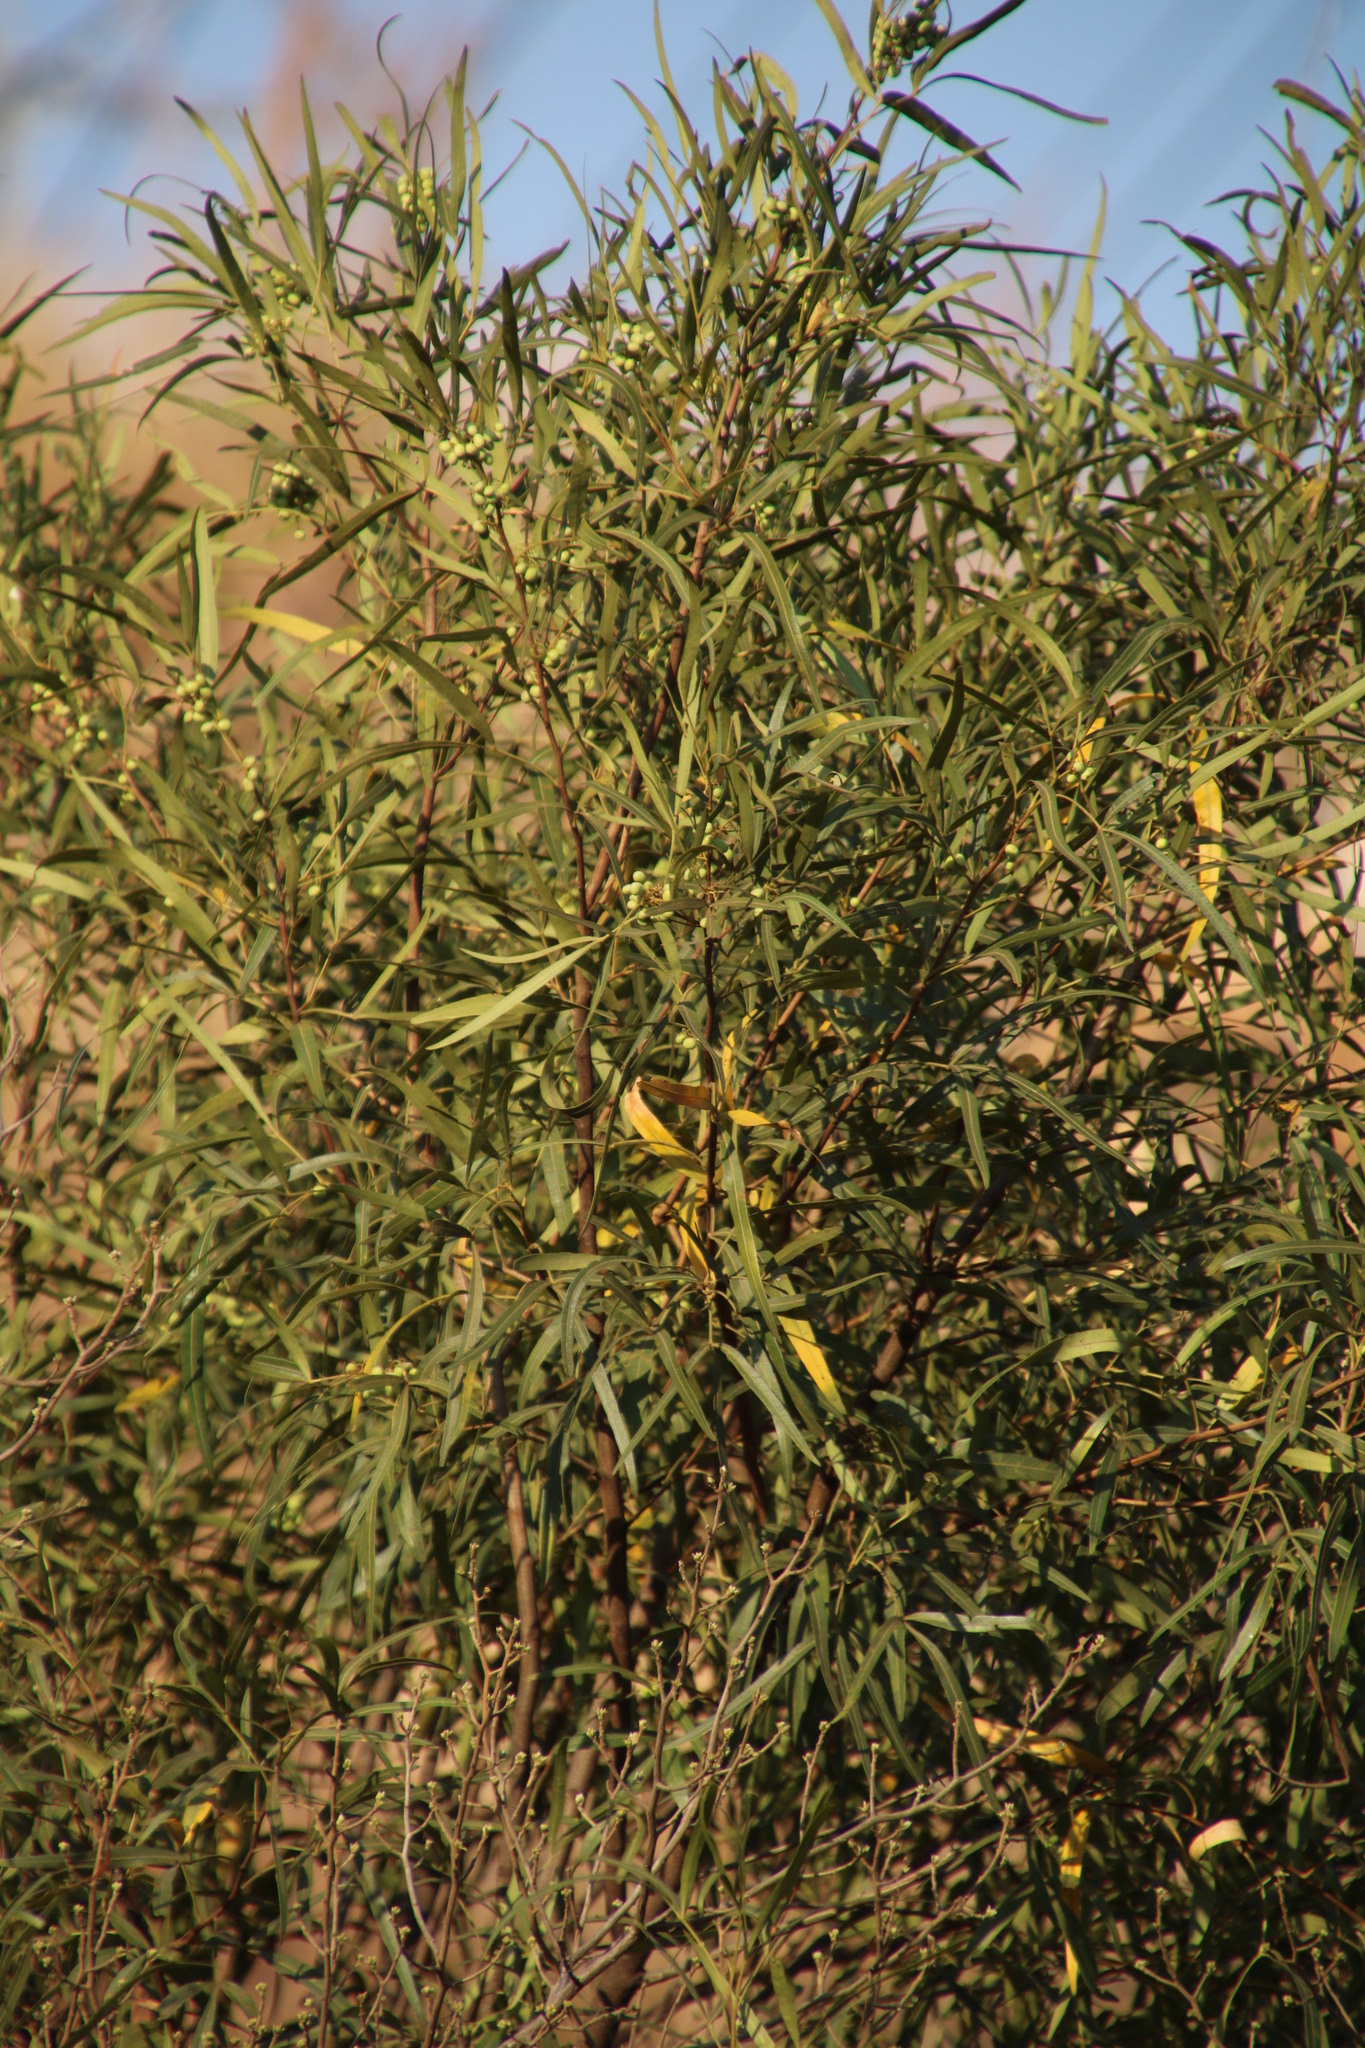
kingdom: Plantae
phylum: Tracheophyta
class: Magnoliopsida
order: Sapindales
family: Anacardiaceae
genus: Searsia
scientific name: Searsia lancea
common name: Cashew
